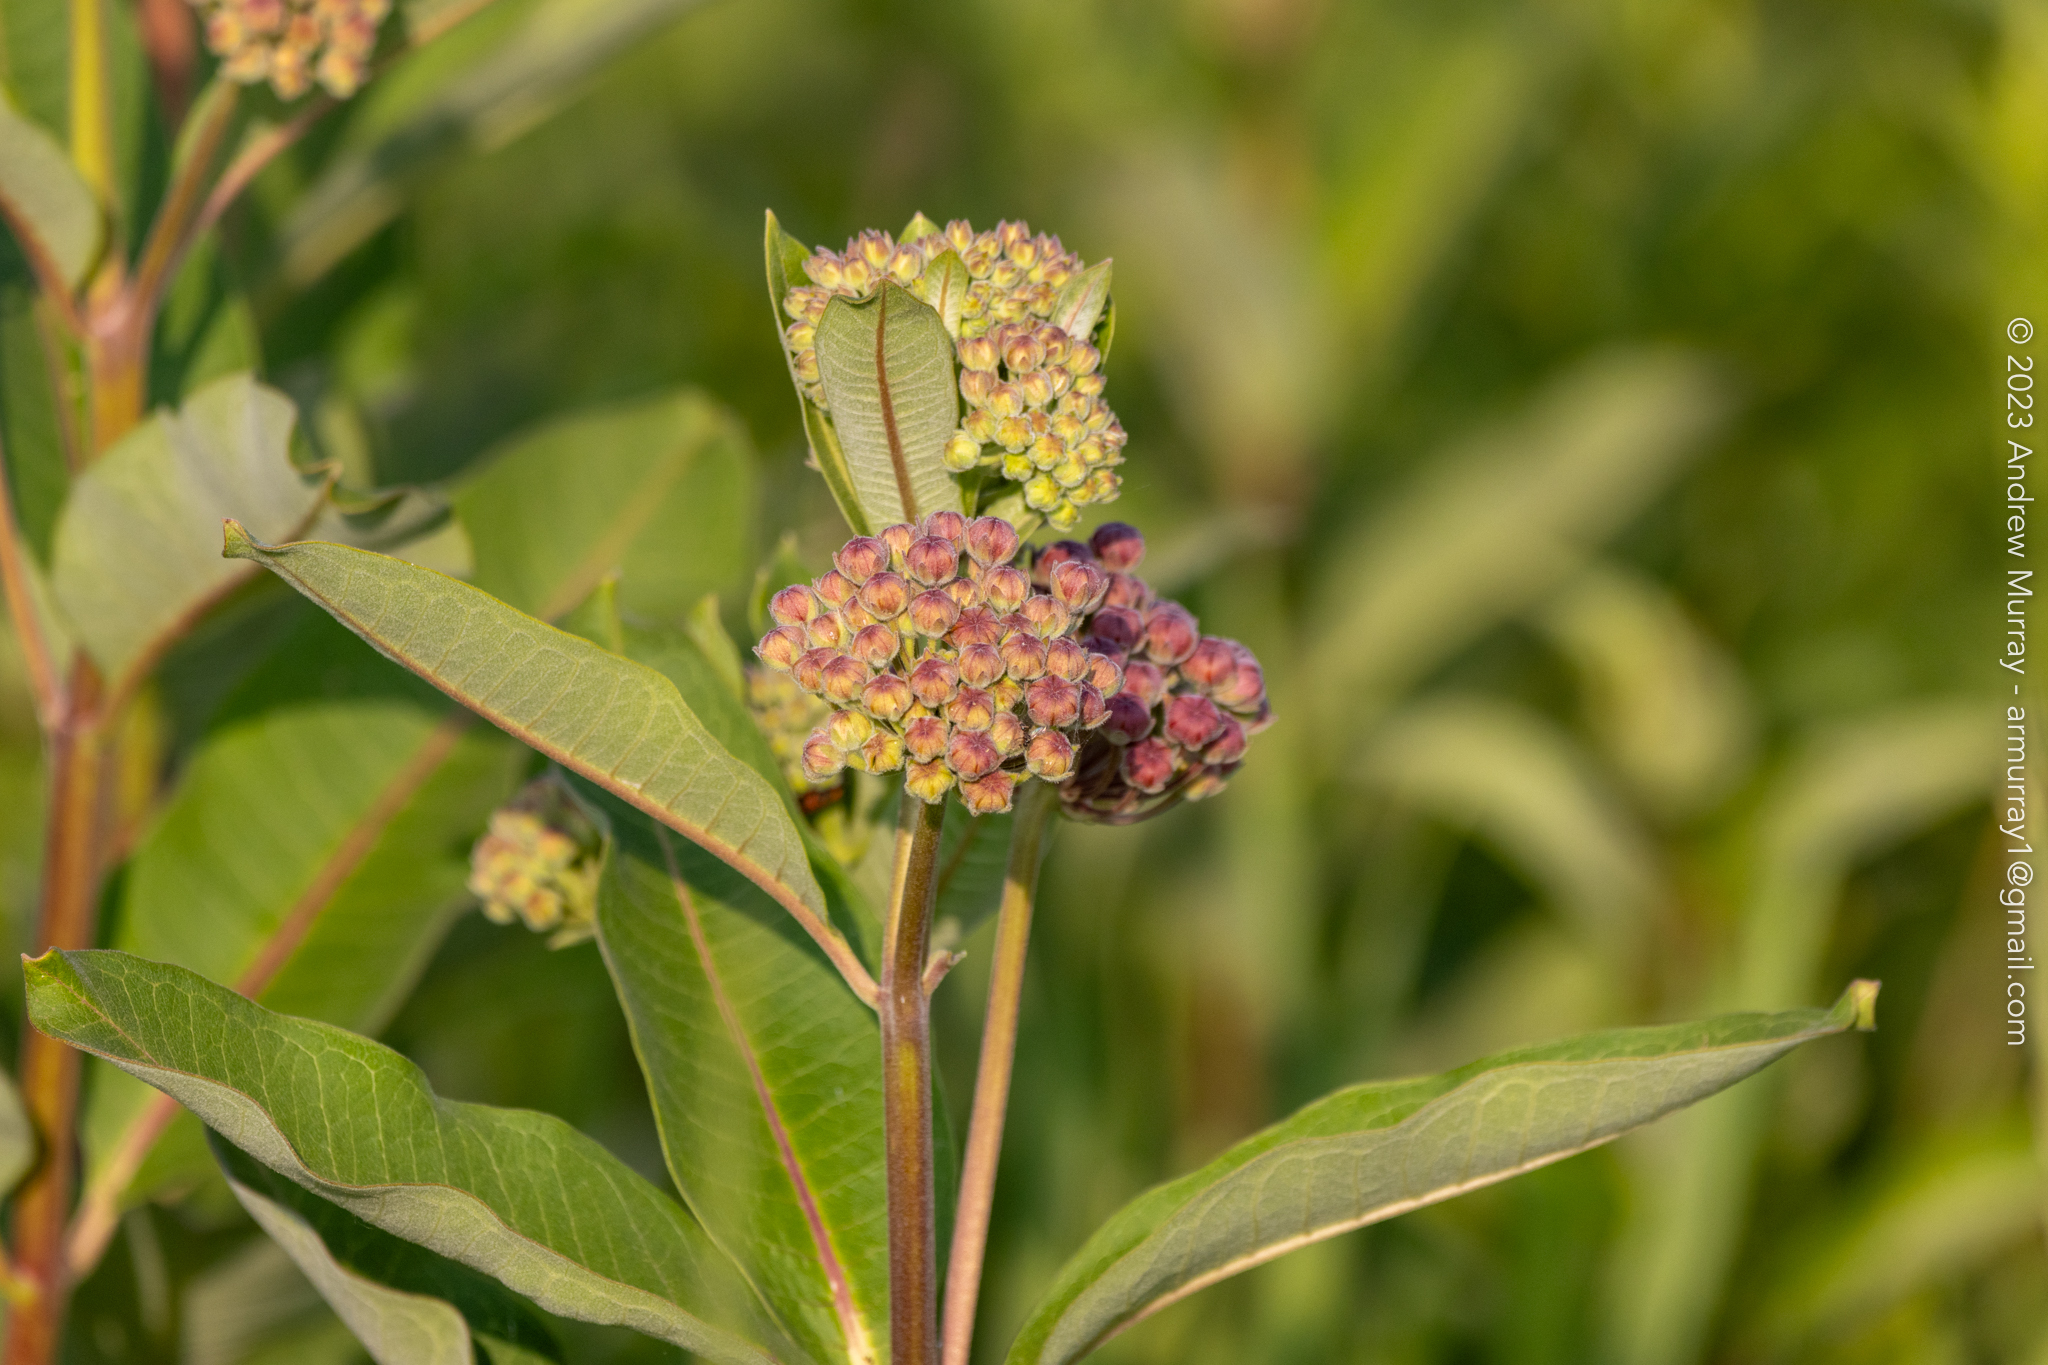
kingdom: Plantae
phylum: Tracheophyta
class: Magnoliopsida
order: Gentianales
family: Apocynaceae
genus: Asclepias
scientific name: Asclepias syriaca
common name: Common milkweed
